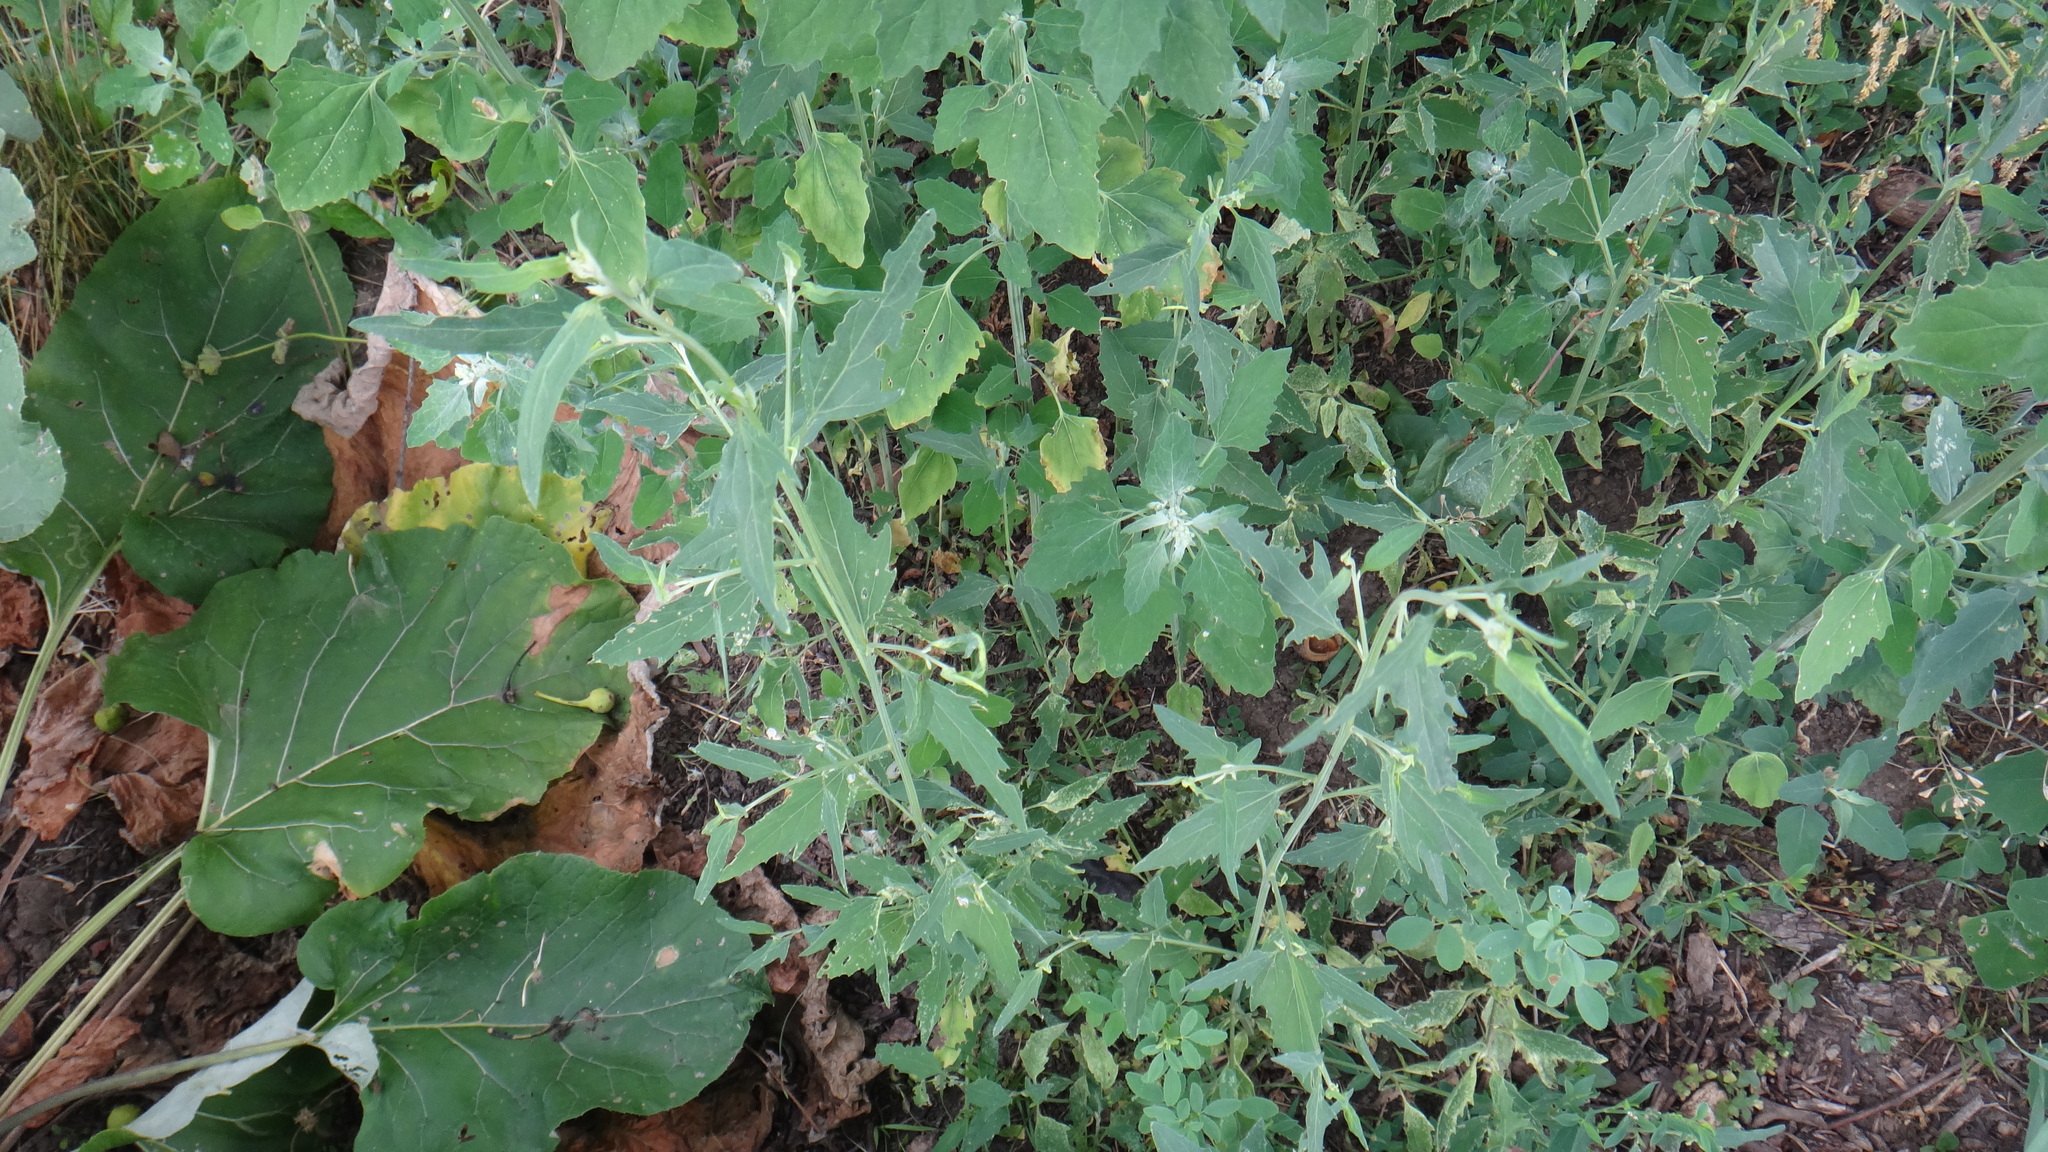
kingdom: Plantae
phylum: Tracheophyta
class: Magnoliopsida
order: Caryophyllales
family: Amaranthaceae
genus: Atriplex
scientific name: Atriplex patula
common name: Common orache
